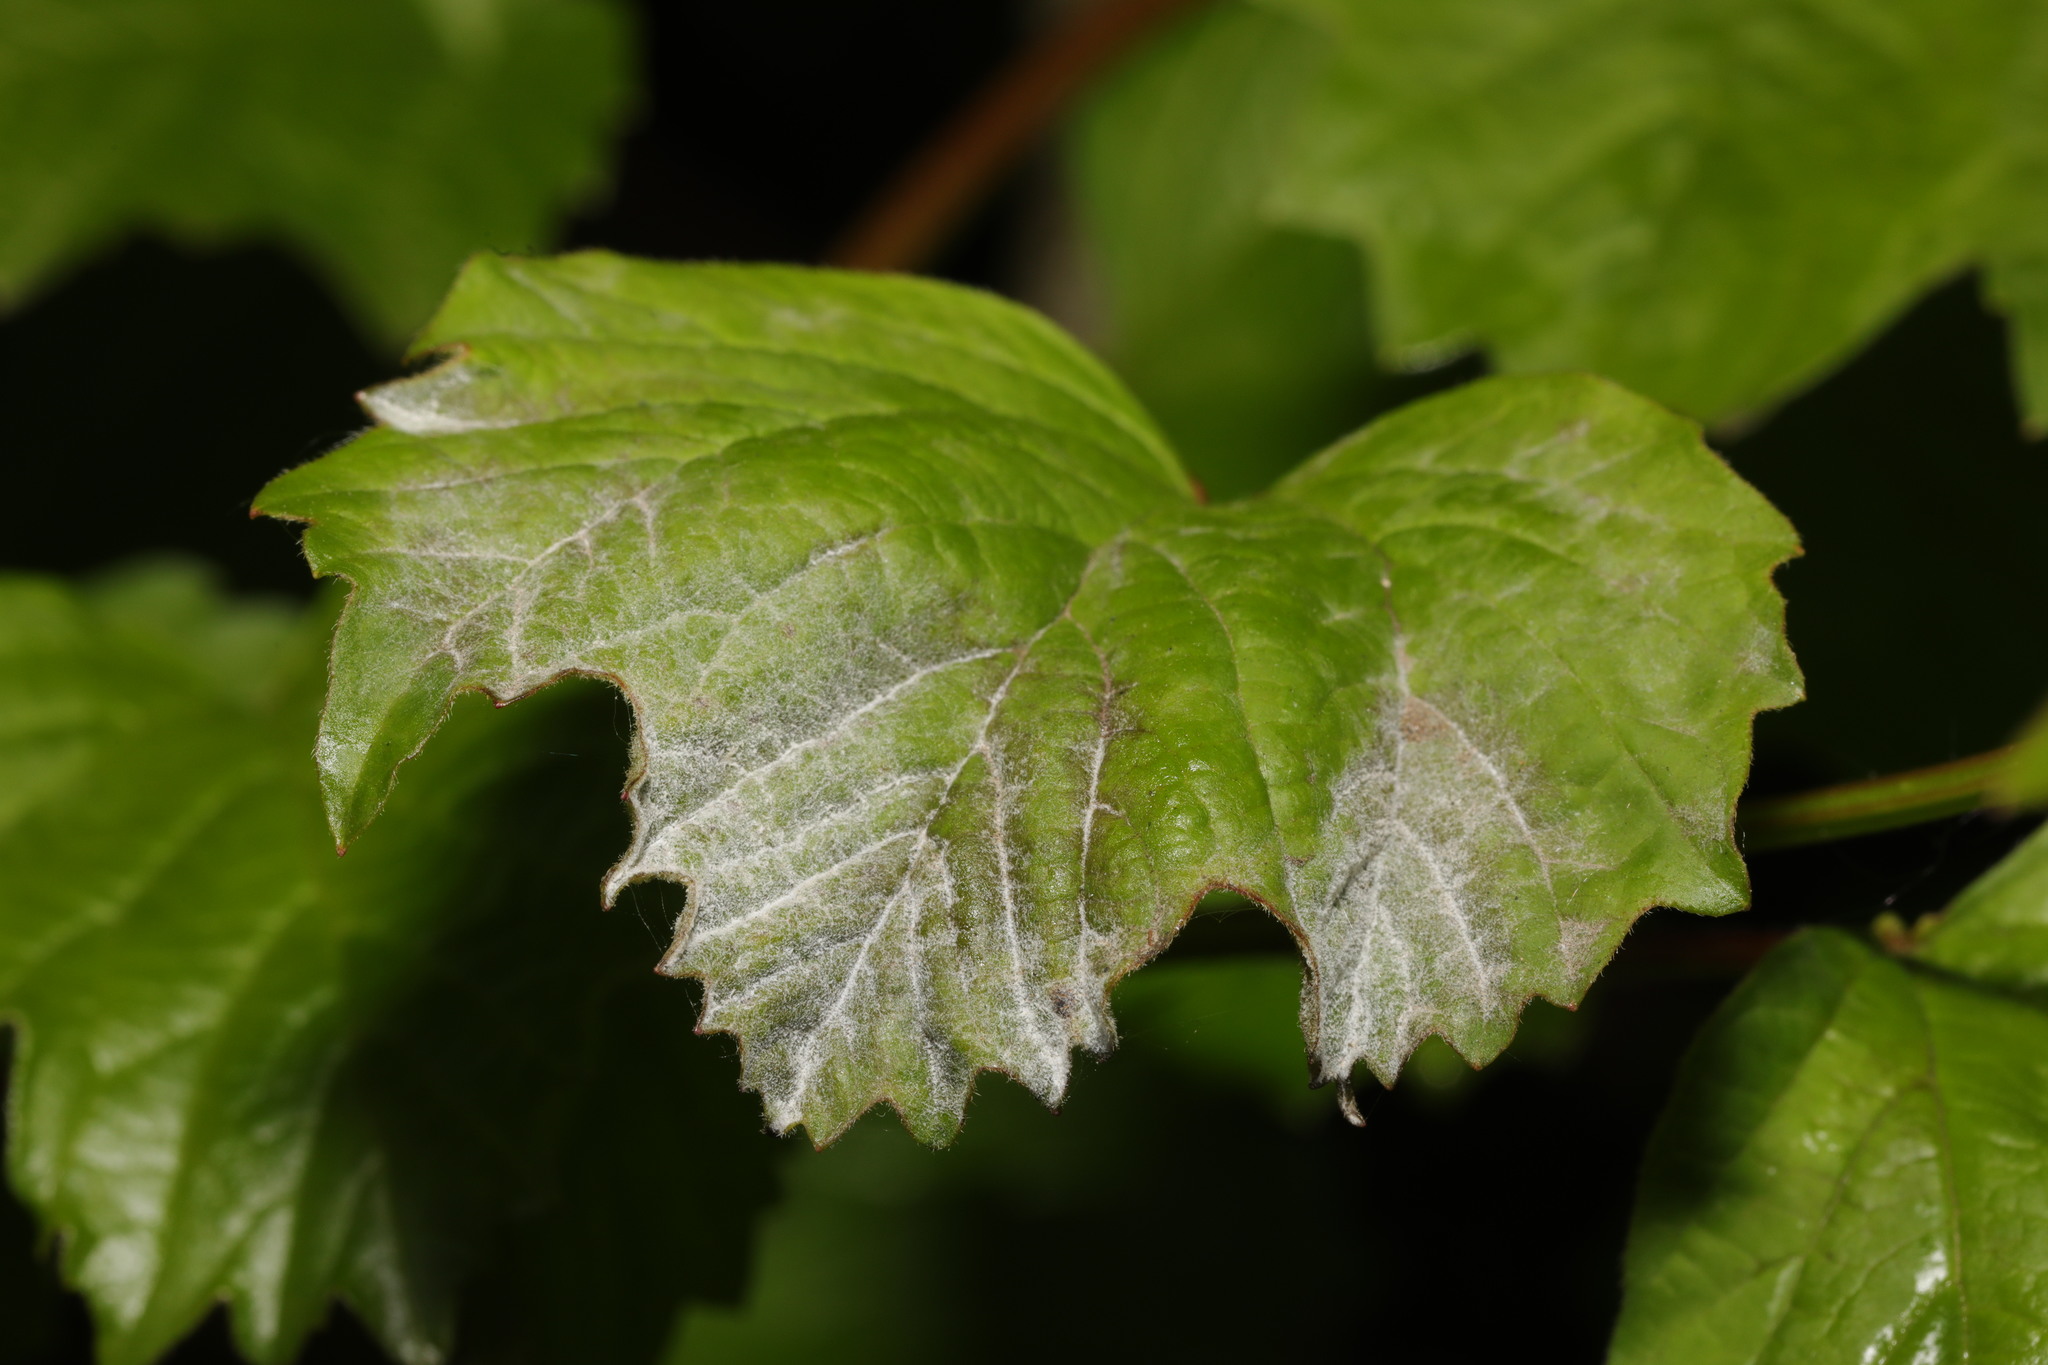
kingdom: Fungi
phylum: Ascomycota
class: Leotiomycetes
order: Helotiales
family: Erysiphaceae
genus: Erysiphe
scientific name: Erysiphe viburni
